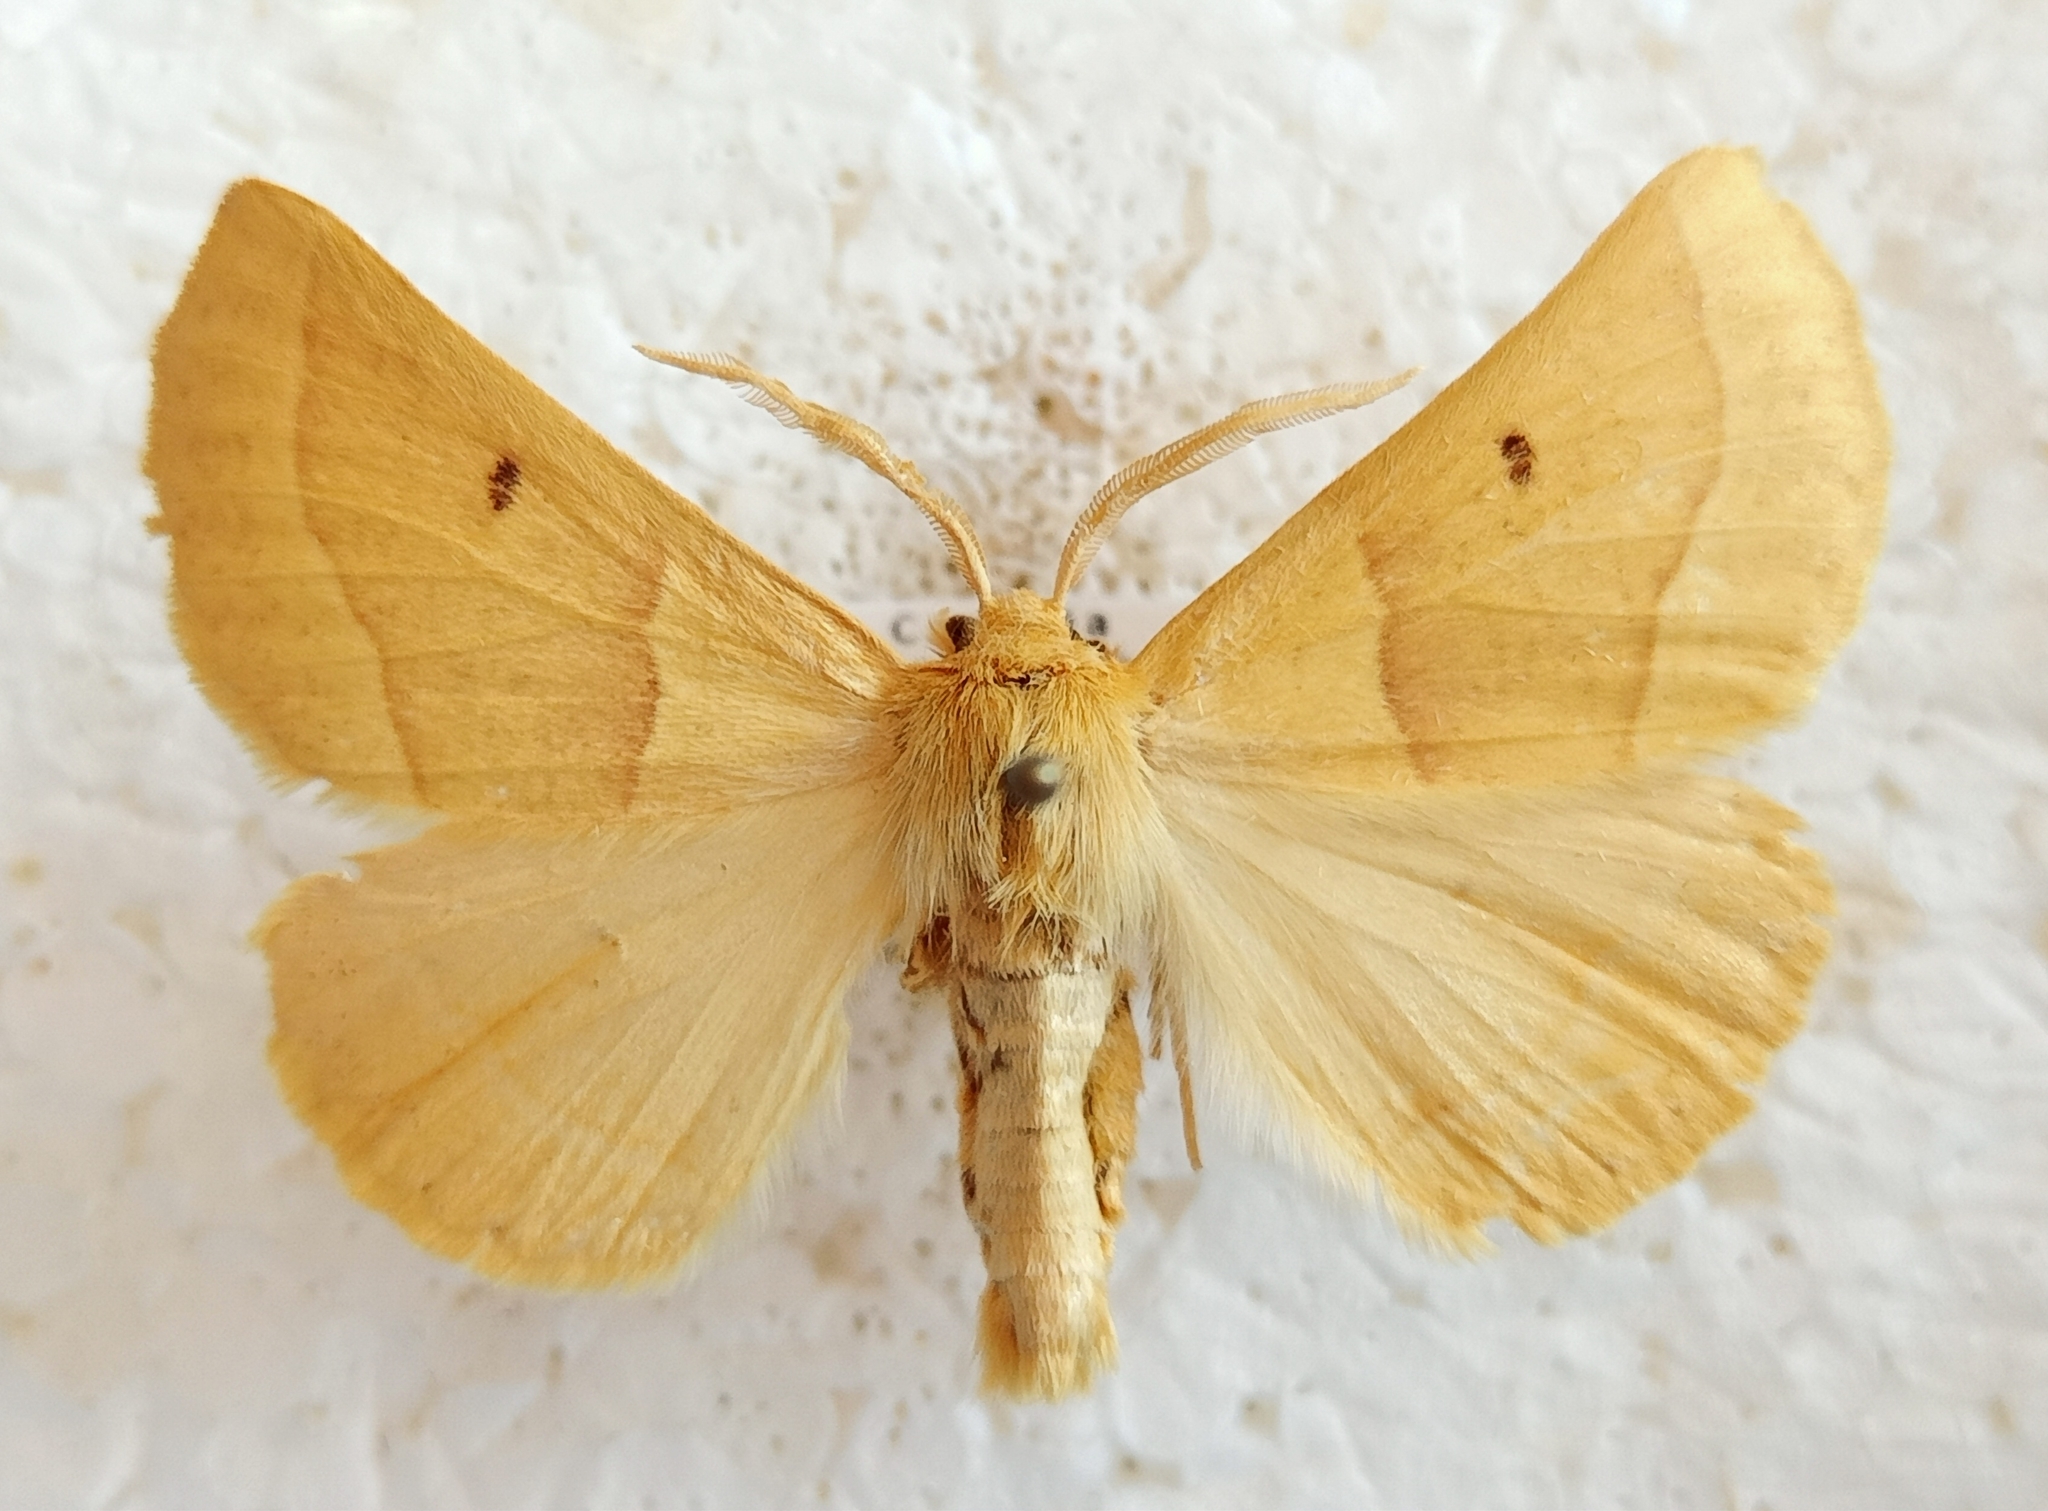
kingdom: Animalia
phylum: Arthropoda
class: Insecta
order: Lepidoptera
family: Geometridae
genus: Crocallis
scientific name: Crocallis elinguaria
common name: Scalloped oak
